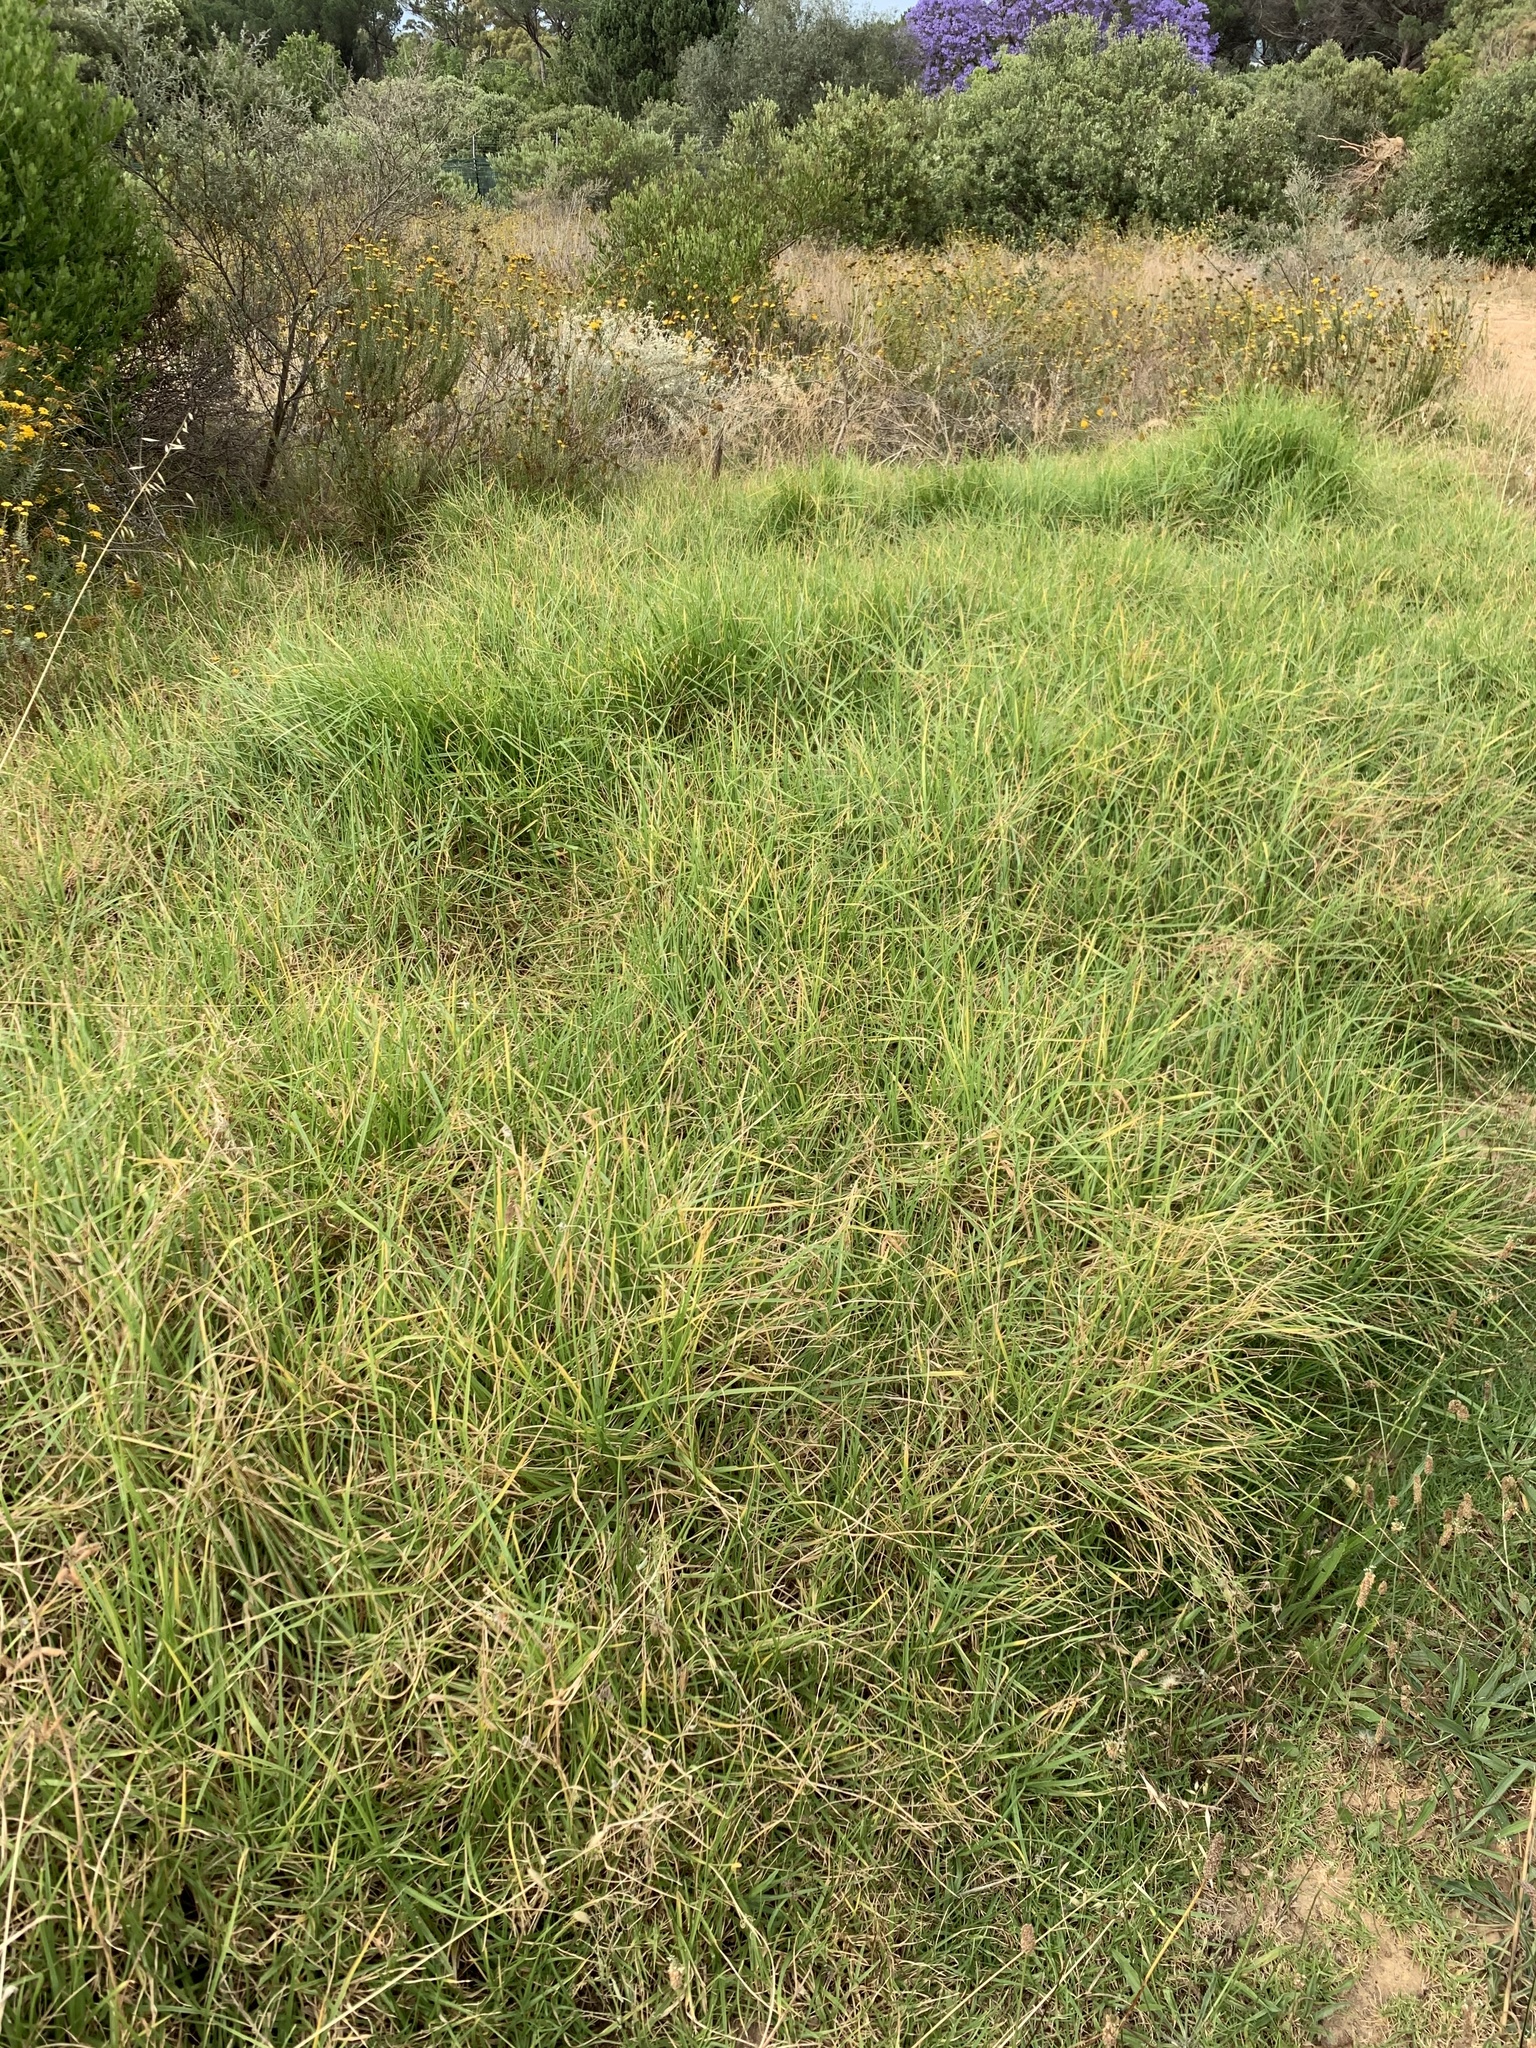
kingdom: Plantae
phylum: Tracheophyta
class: Liliopsida
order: Poales
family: Poaceae
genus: Cenchrus
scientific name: Cenchrus clandestinus
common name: Kikuyugrass
